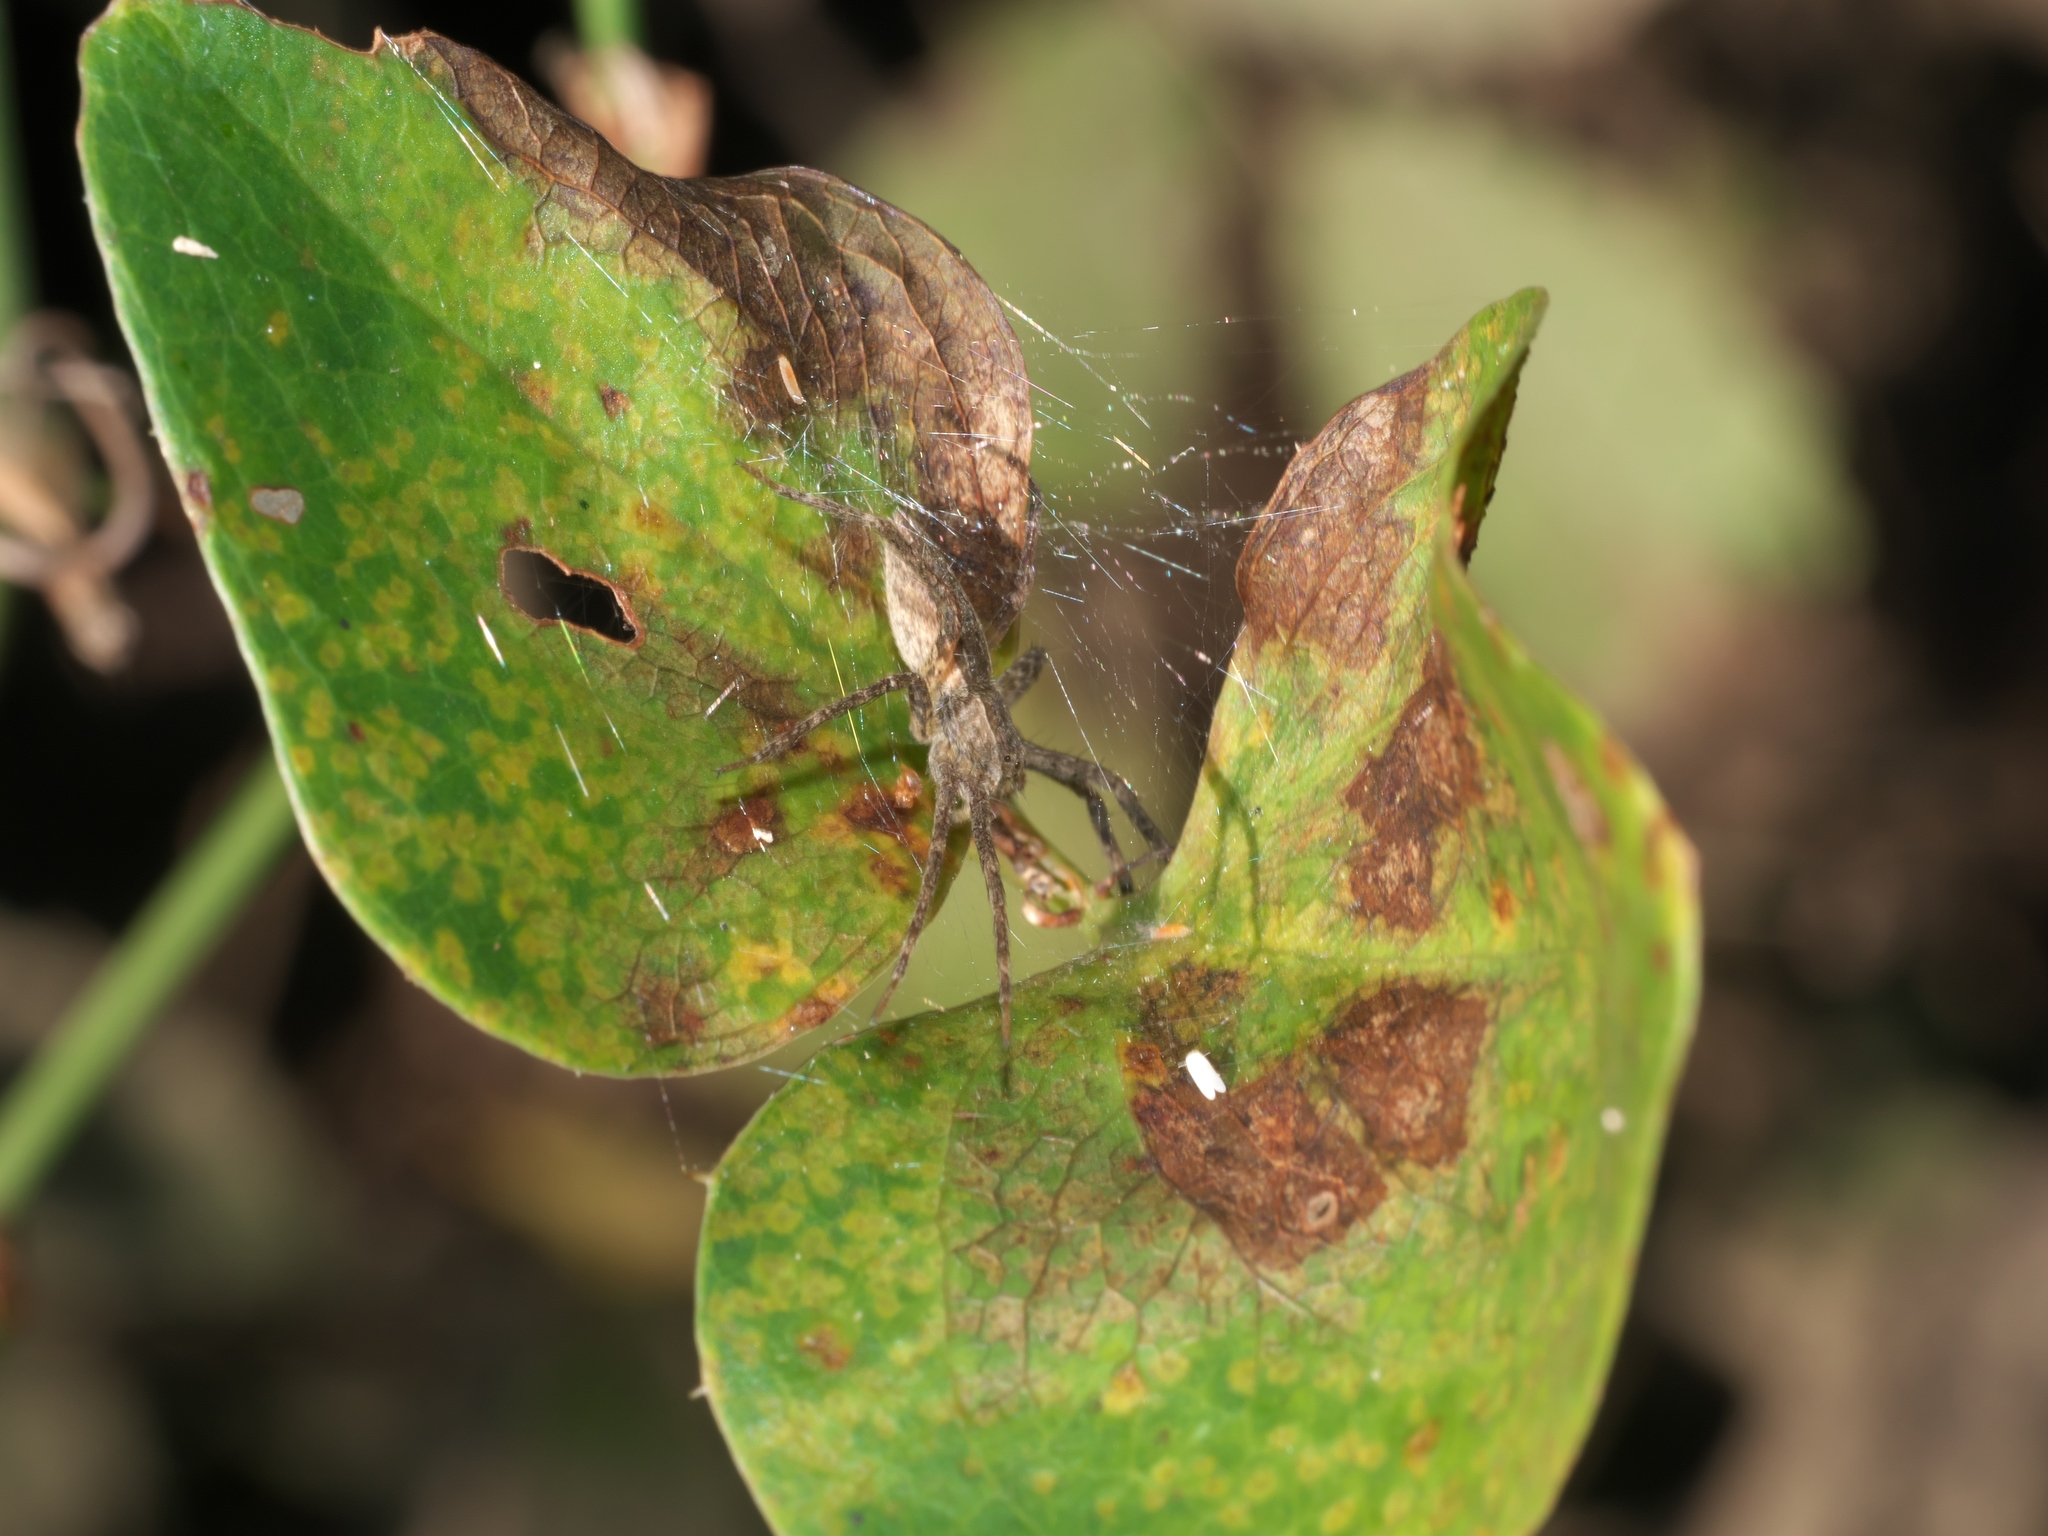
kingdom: Animalia
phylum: Arthropoda
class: Arachnida
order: Araneae
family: Pisauridae
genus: Pisaurina
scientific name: Pisaurina mira
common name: American nursery web spider
